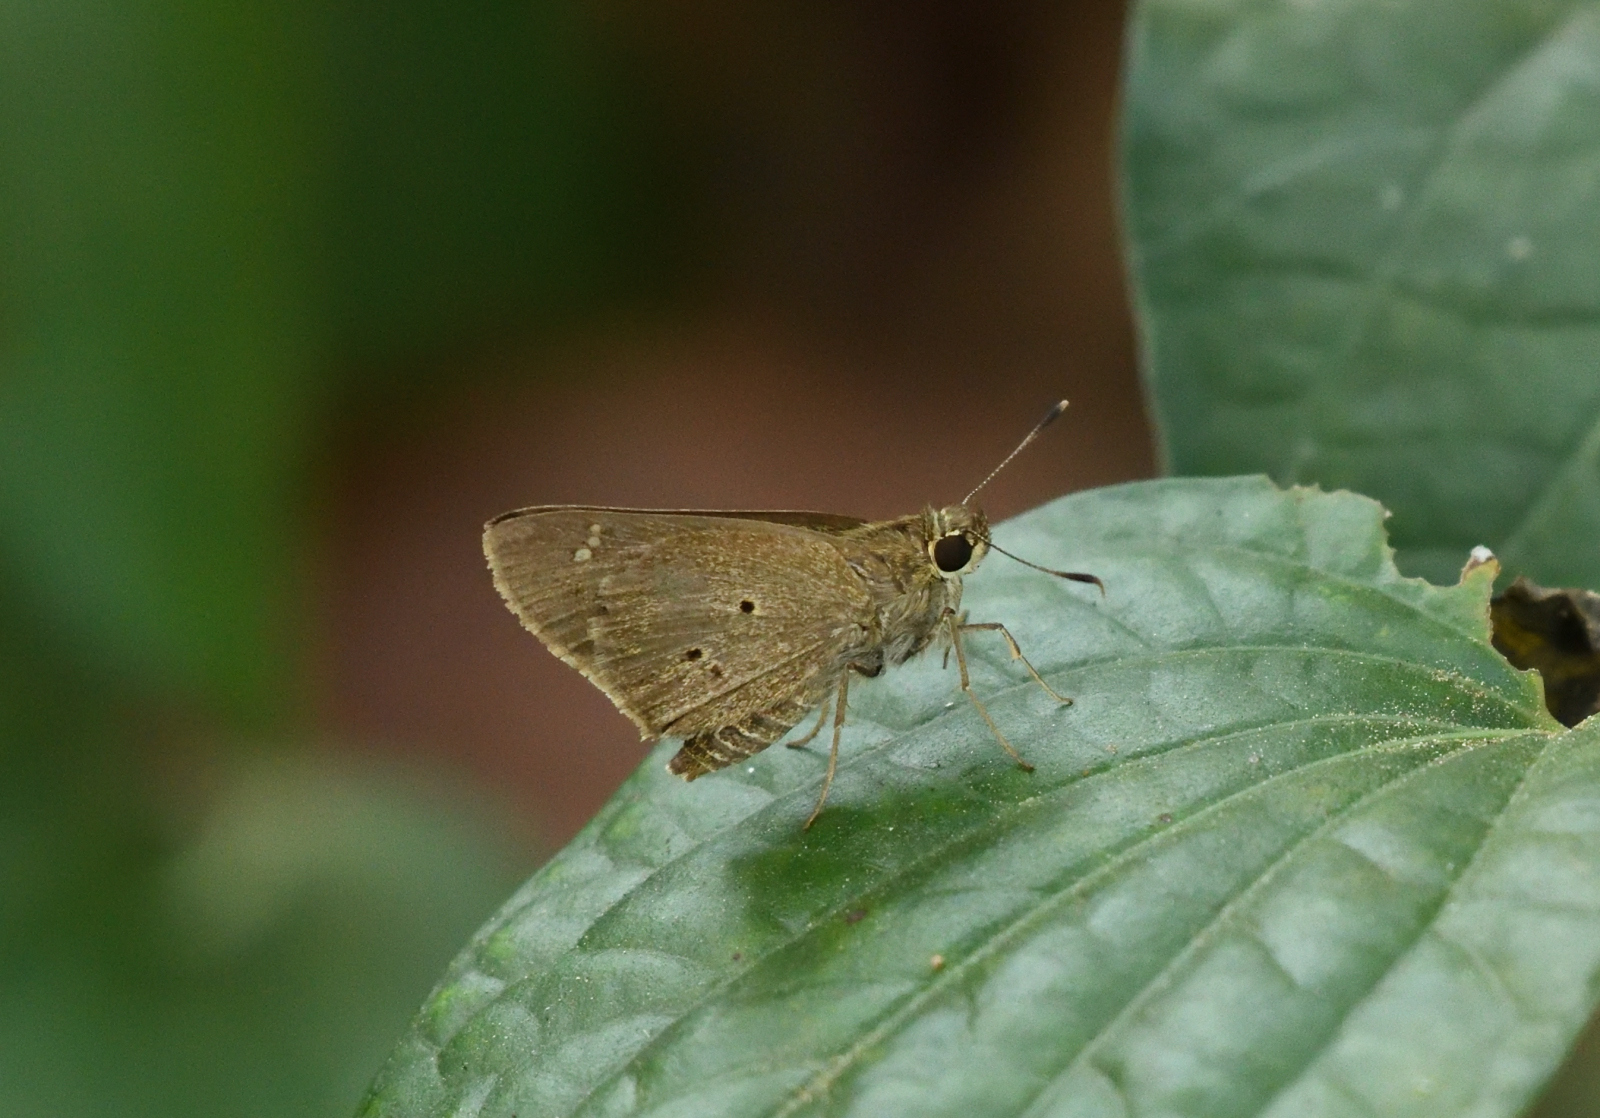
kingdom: Animalia
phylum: Arthropoda
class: Insecta
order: Lepidoptera
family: Hesperiidae
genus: Suastus
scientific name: Suastus gremius
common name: Indian palm bob
